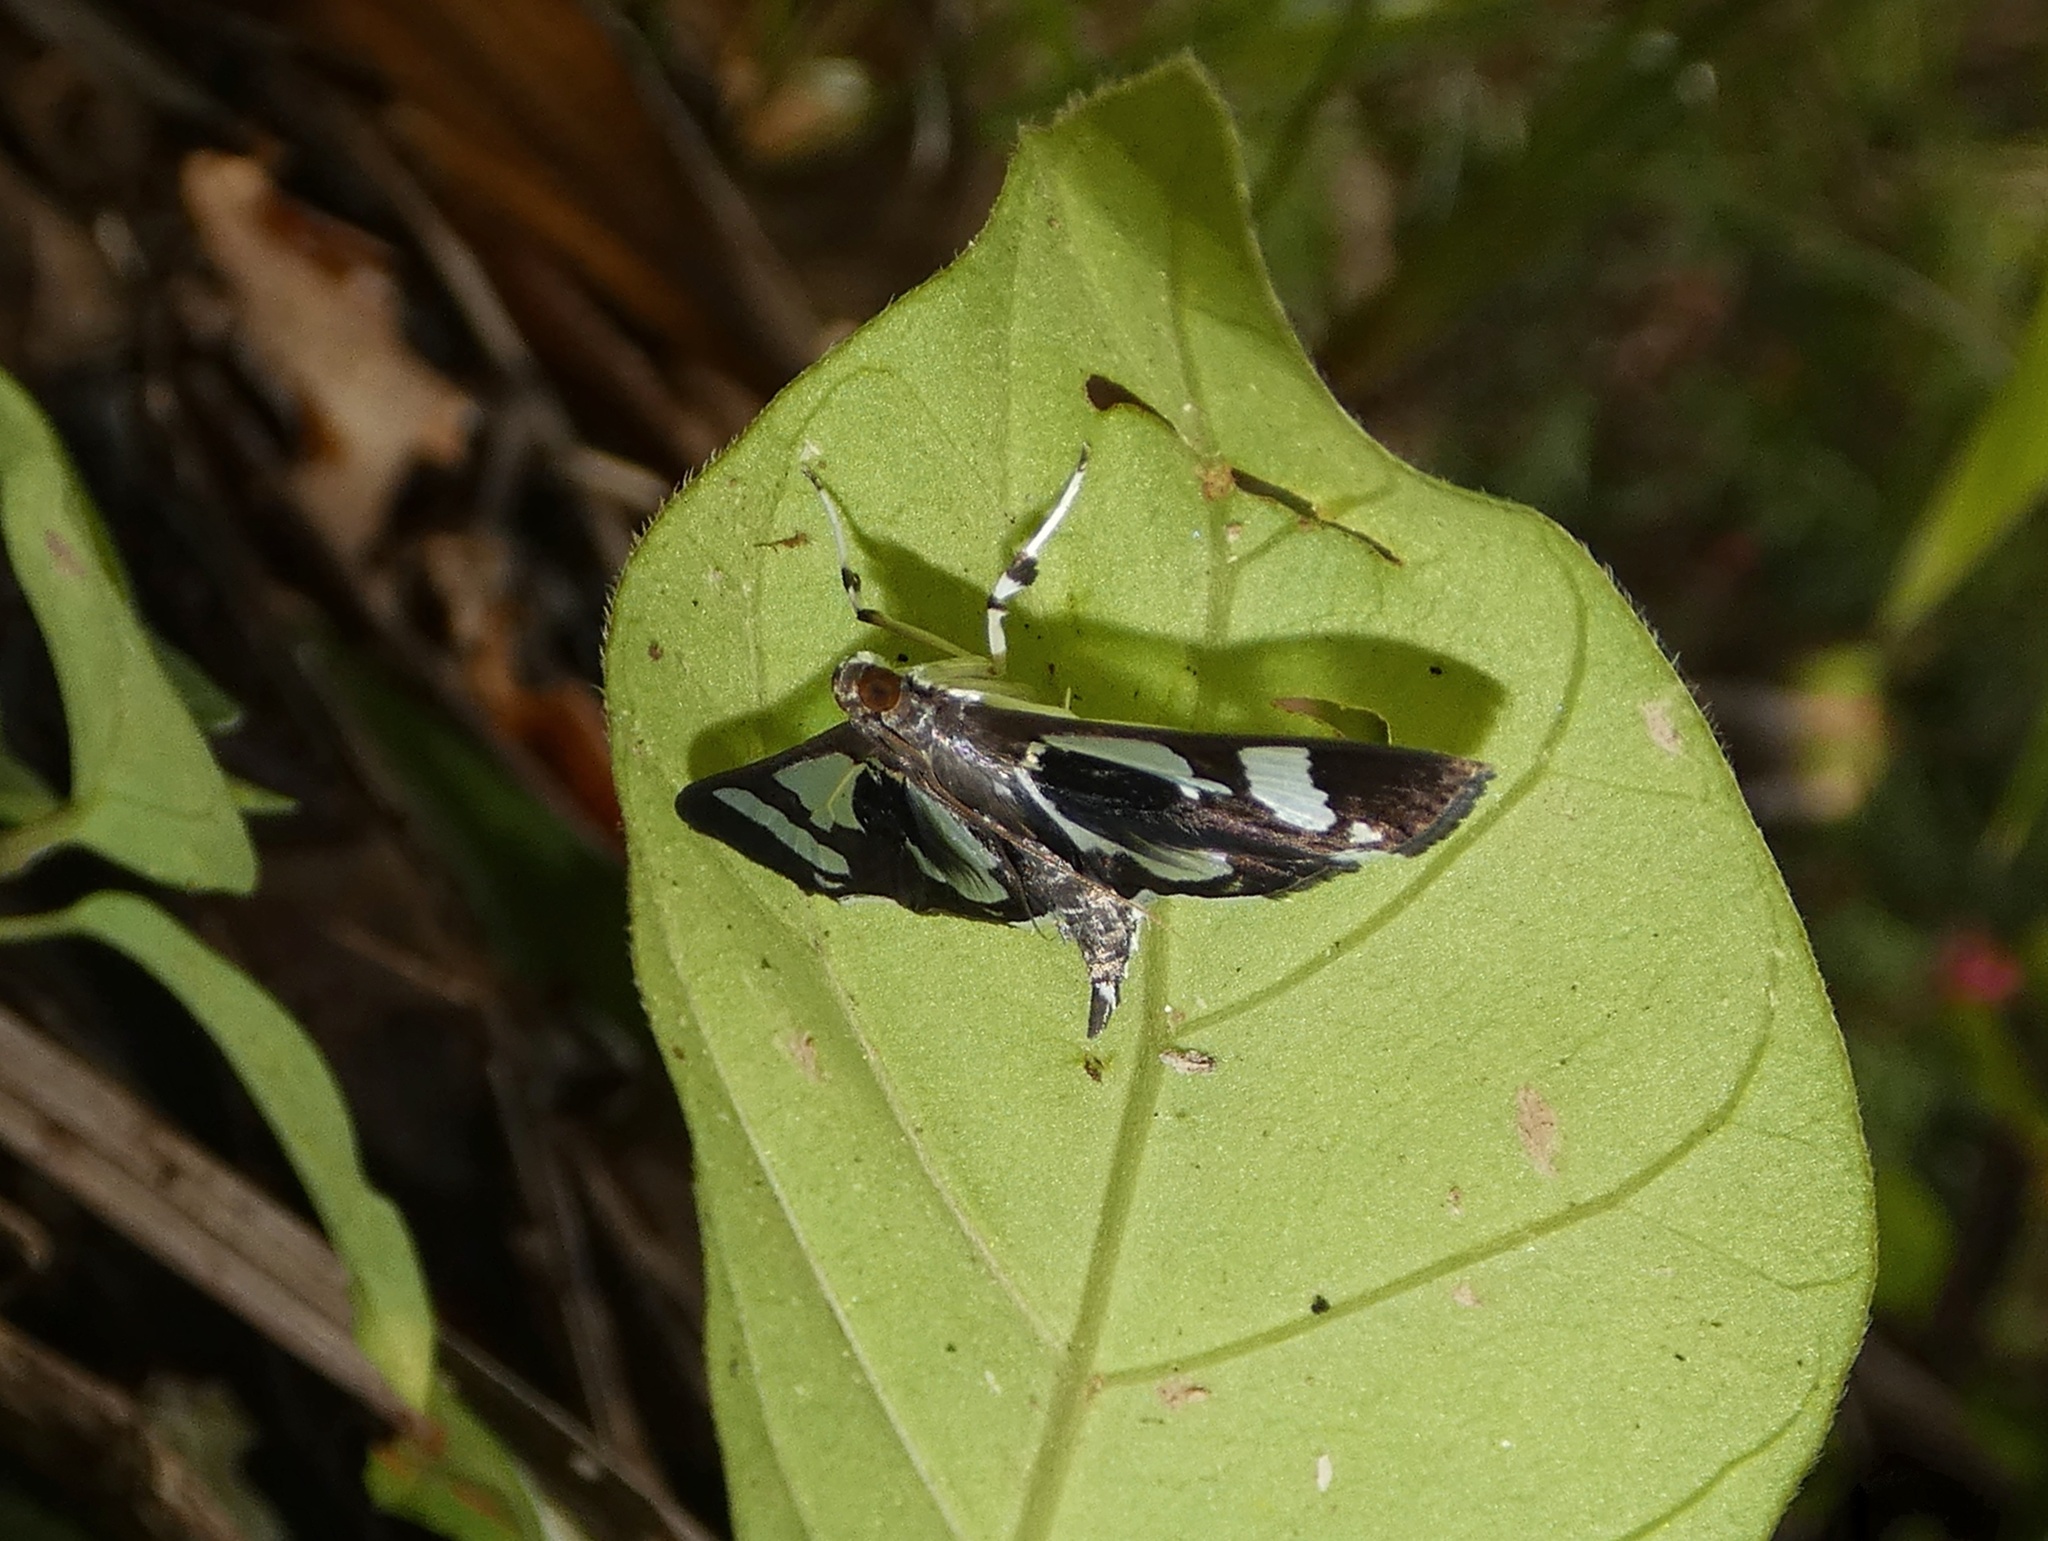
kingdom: Animalia
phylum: Arthropoda
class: Insecta
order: Lepidoptera
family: Crambidae
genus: Desmia
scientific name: Desmia bajulalis
